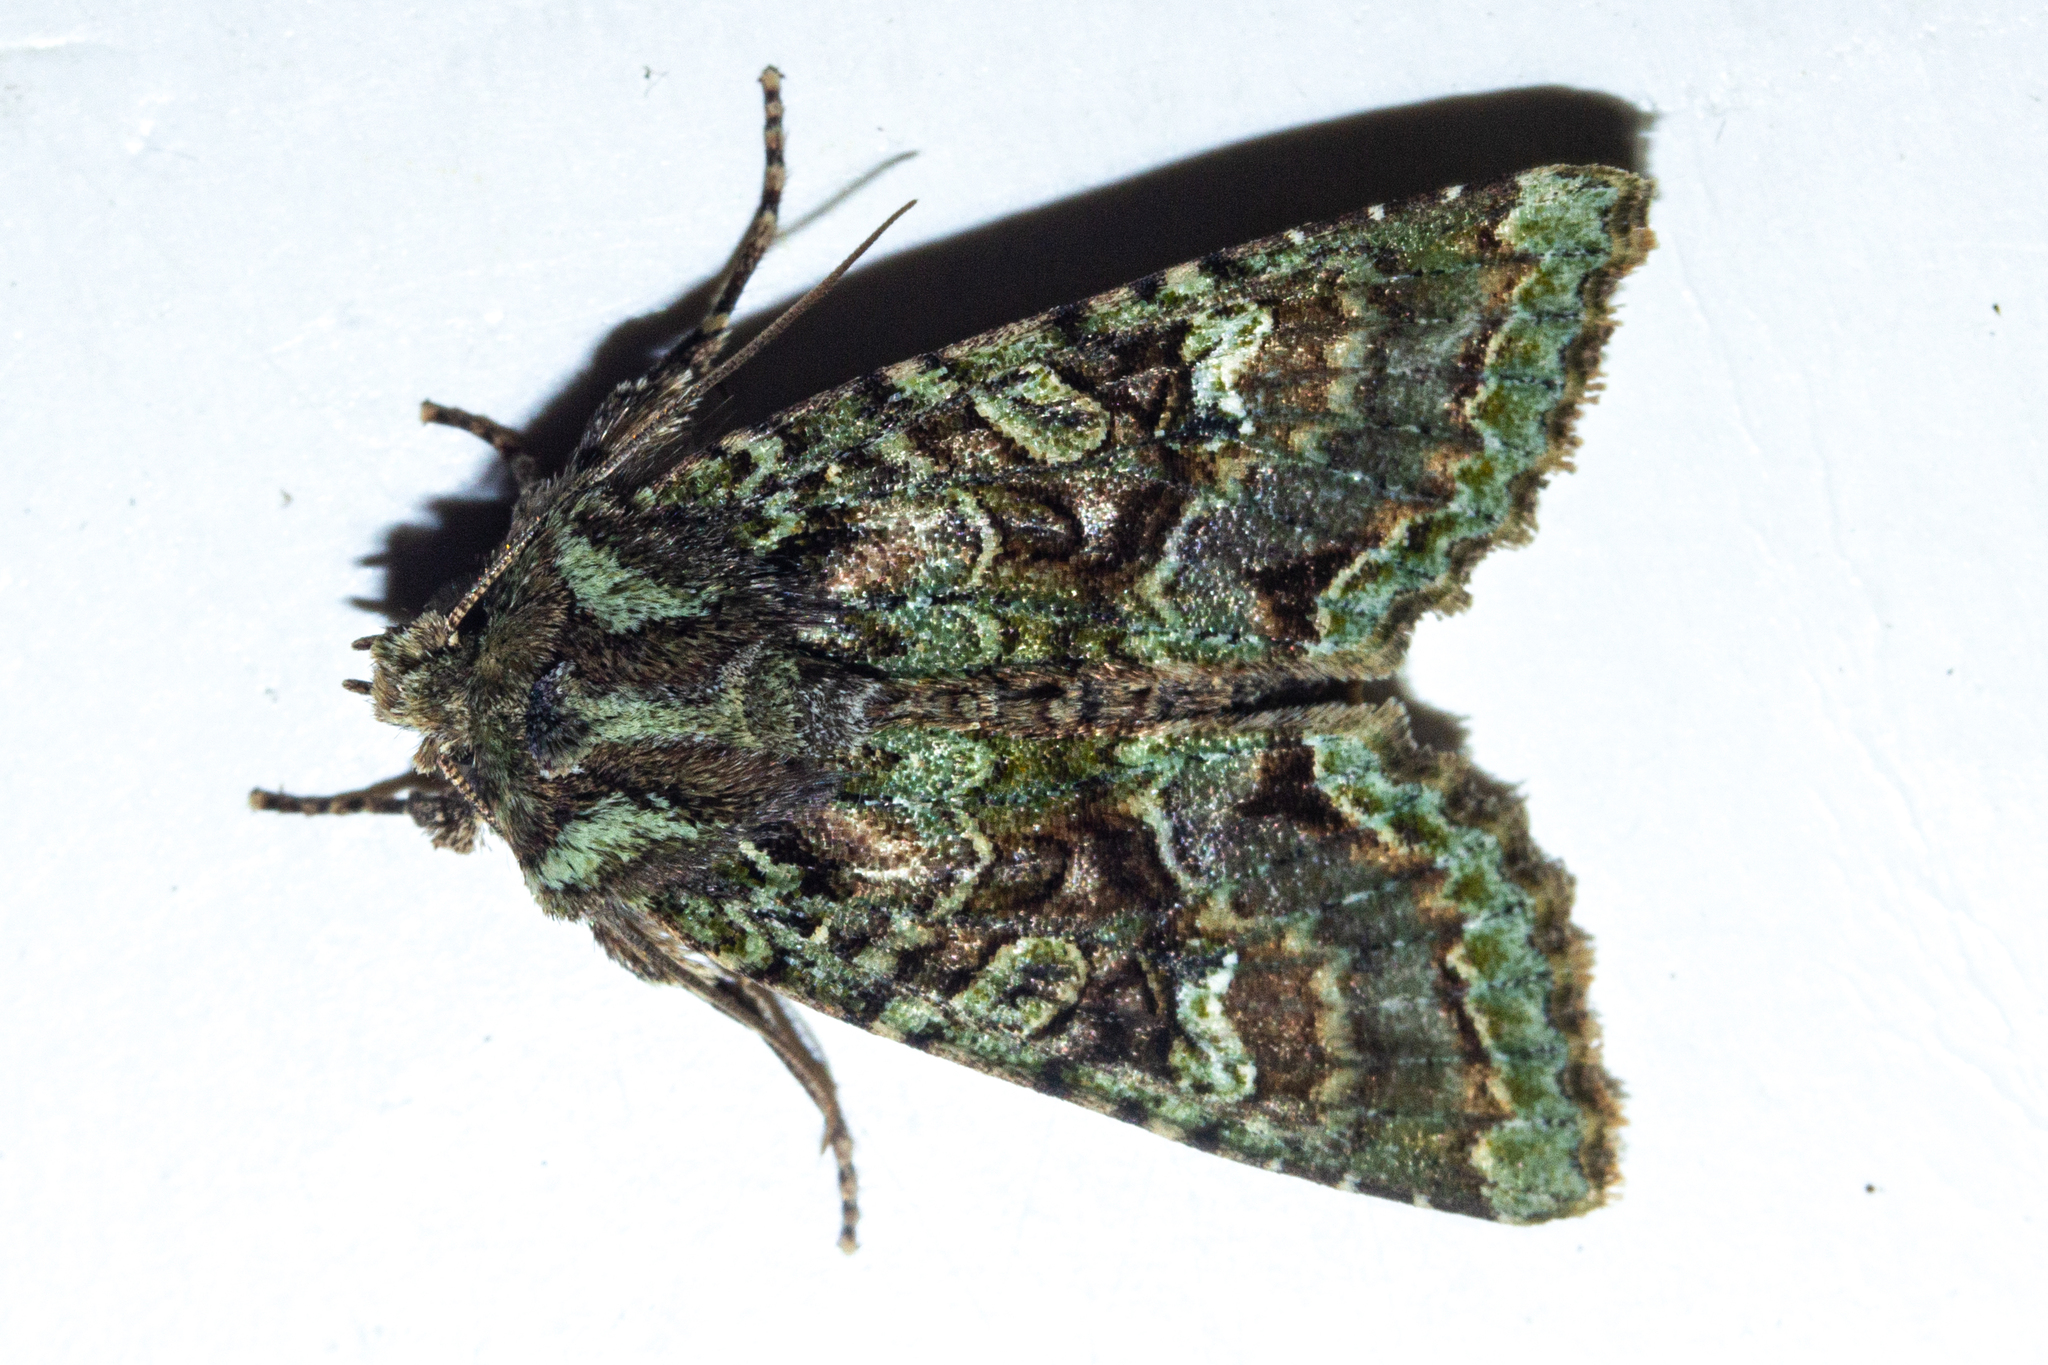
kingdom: Animalia
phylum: Arthropoda
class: Insecta
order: Lepidoptera
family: Noctuidae
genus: Meterana
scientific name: Meterana
